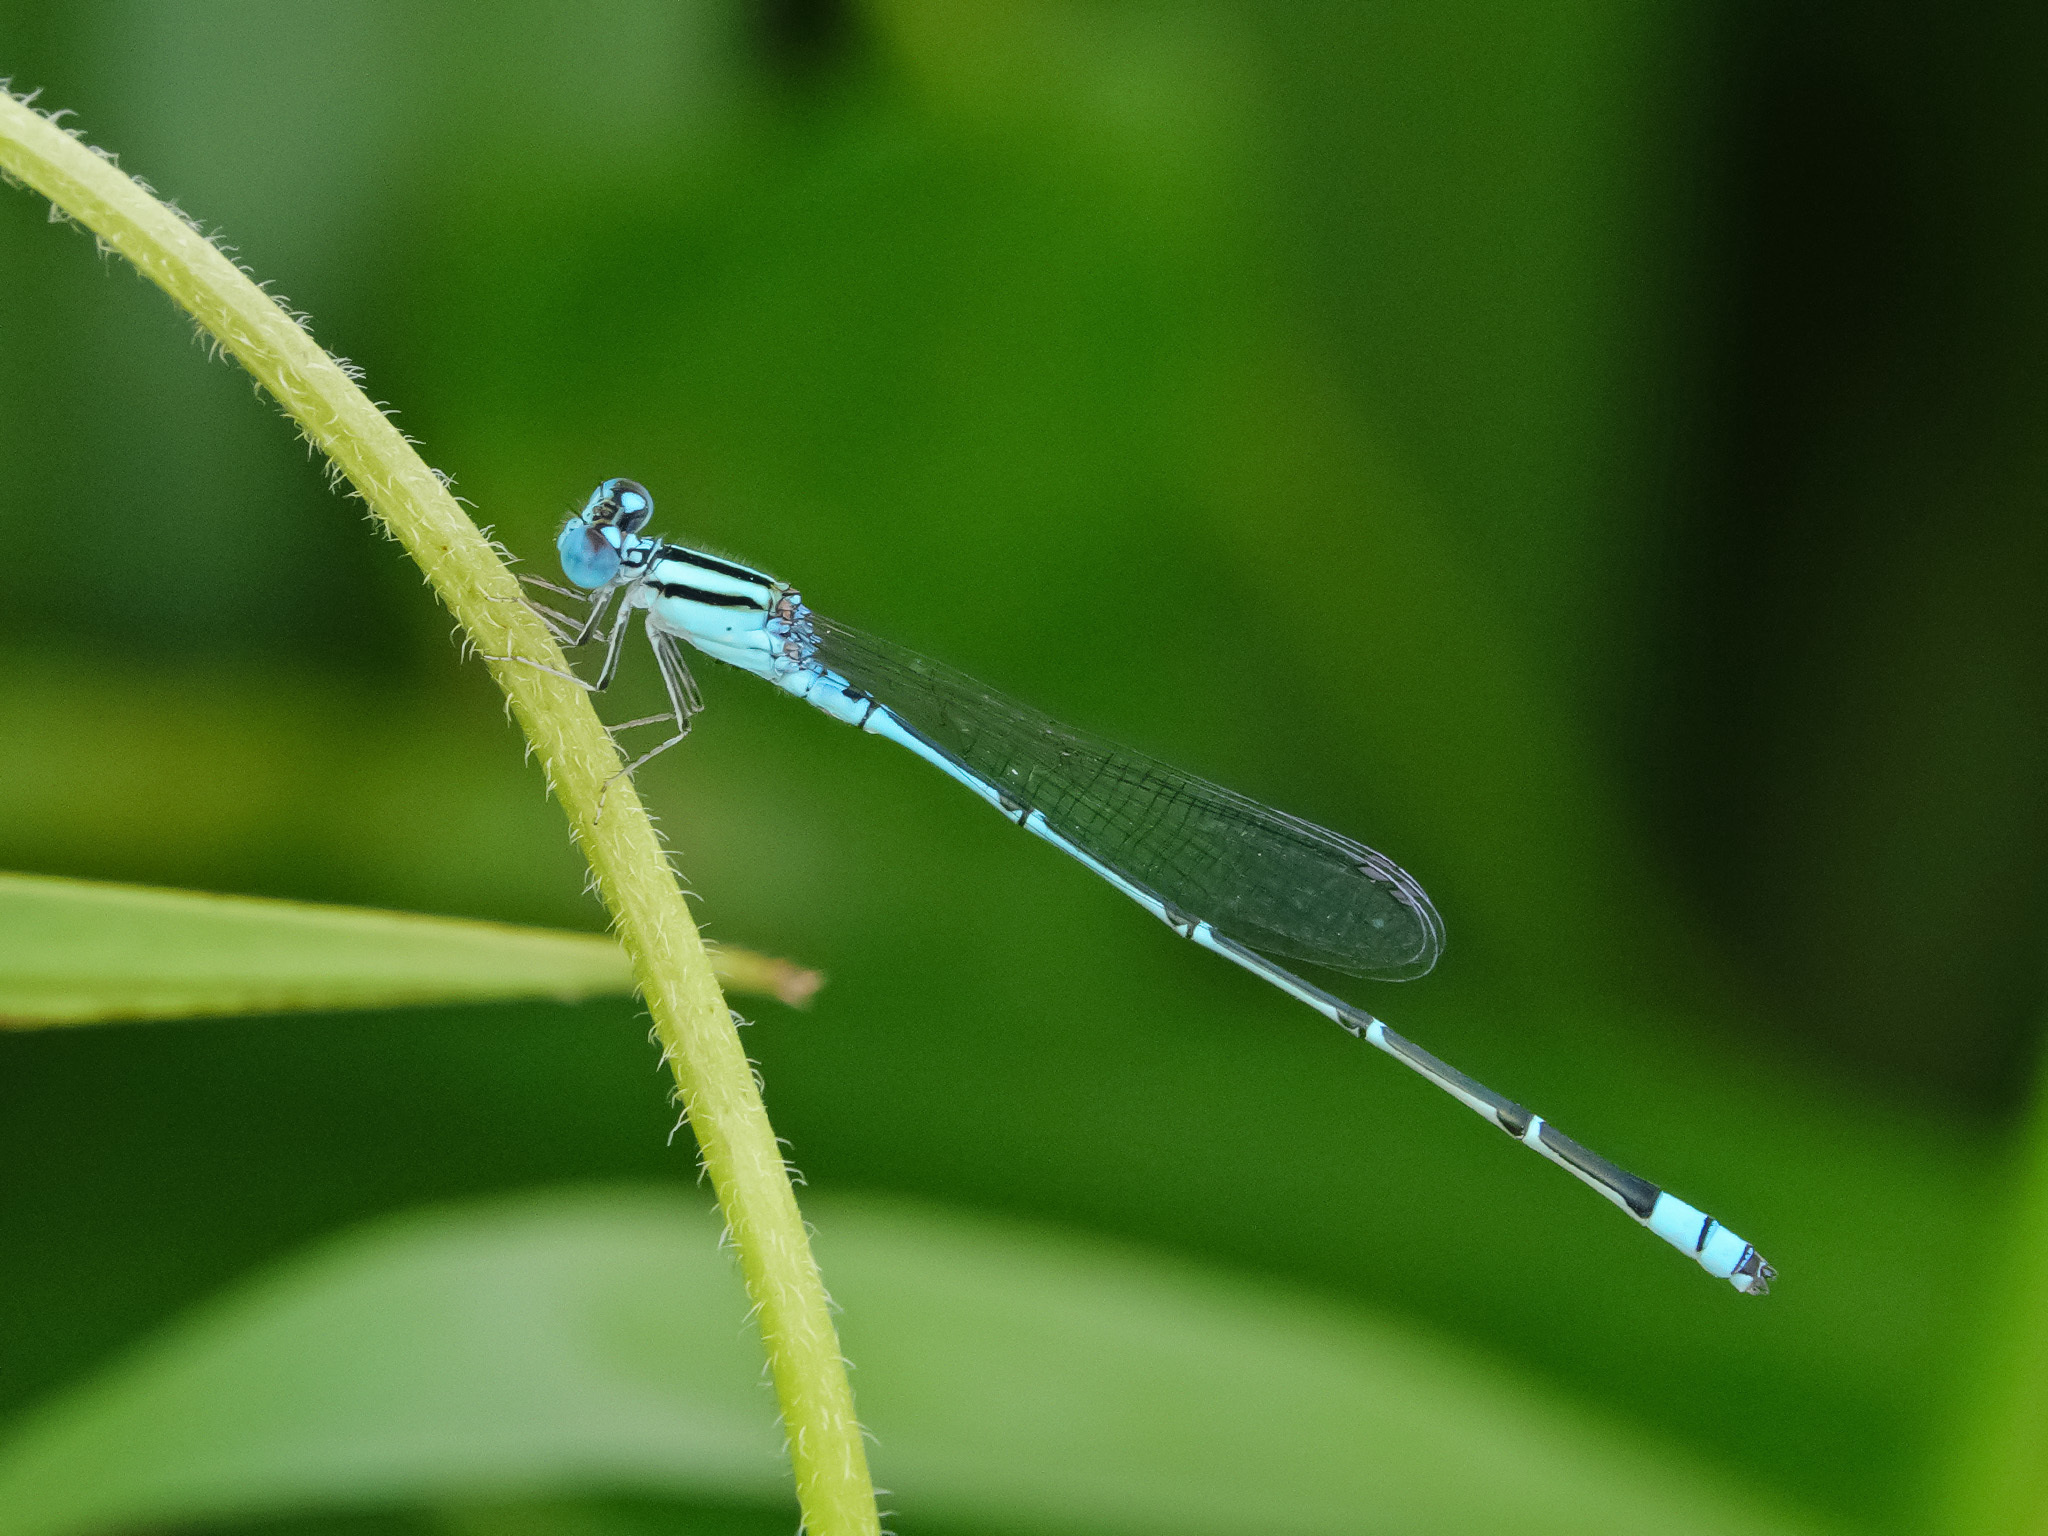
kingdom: Animalia
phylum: Arthropoda
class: Insecta
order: Odonata
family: Coenagrionidae
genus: Pseudagrion
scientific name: Pseudagrion microcephalum
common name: Blue riverdamsel
